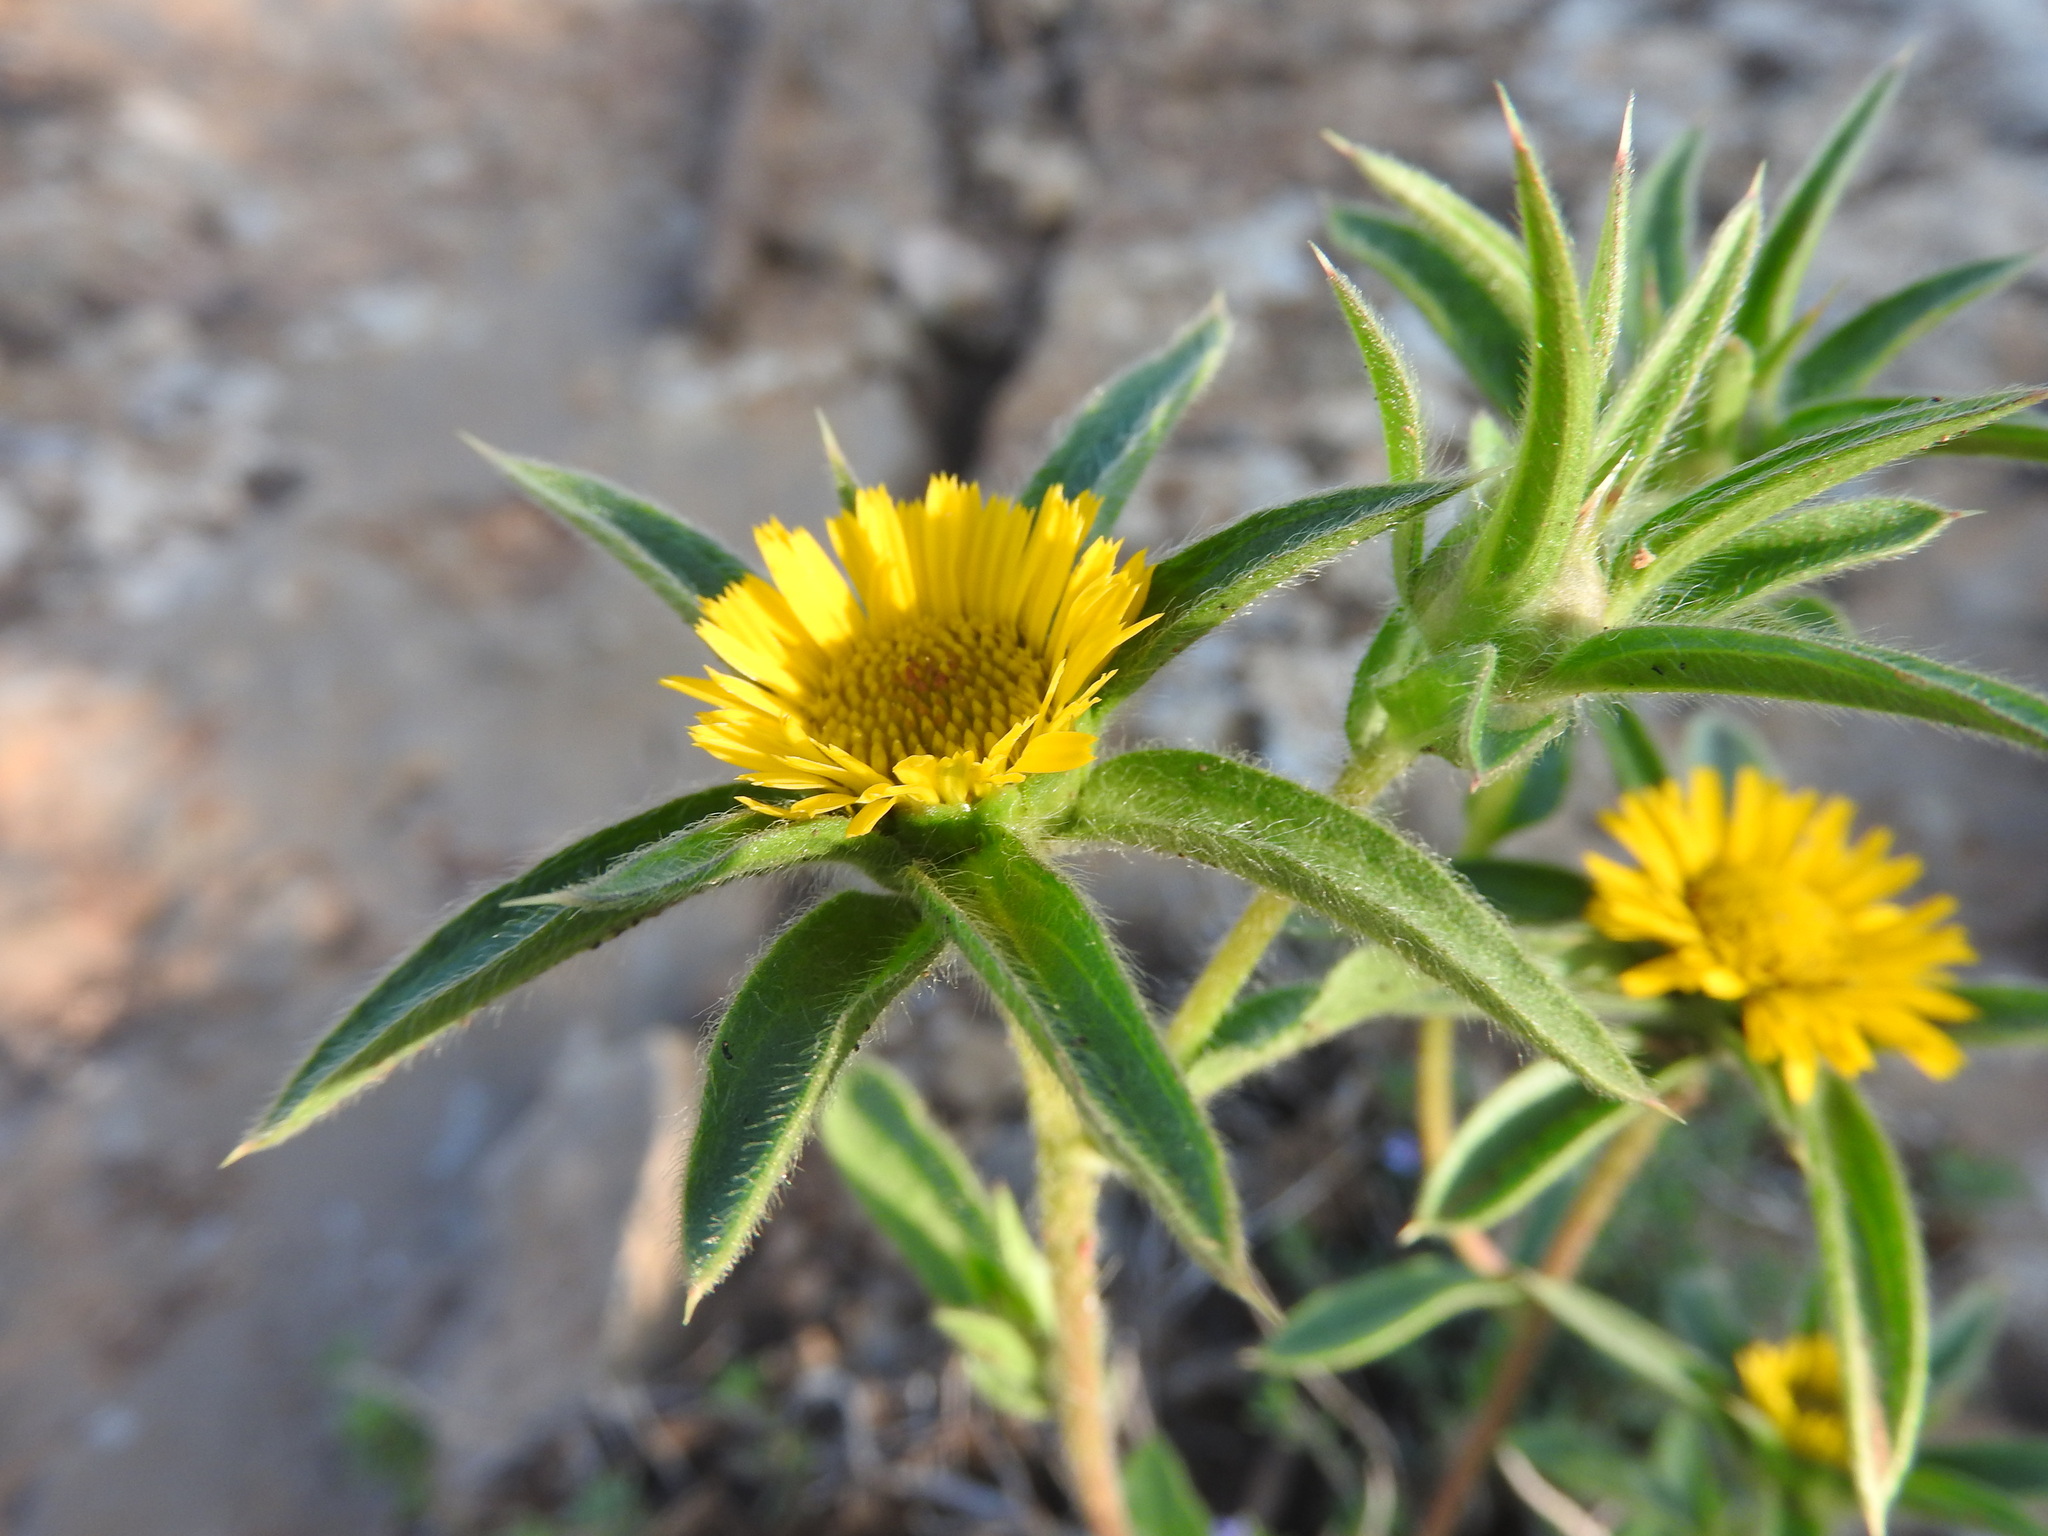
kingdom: Plantae
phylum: Tracheophyta
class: Magnoliopsida
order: Asterales
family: Asteraceae
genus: Pallenis
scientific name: Pallenis spinosa
